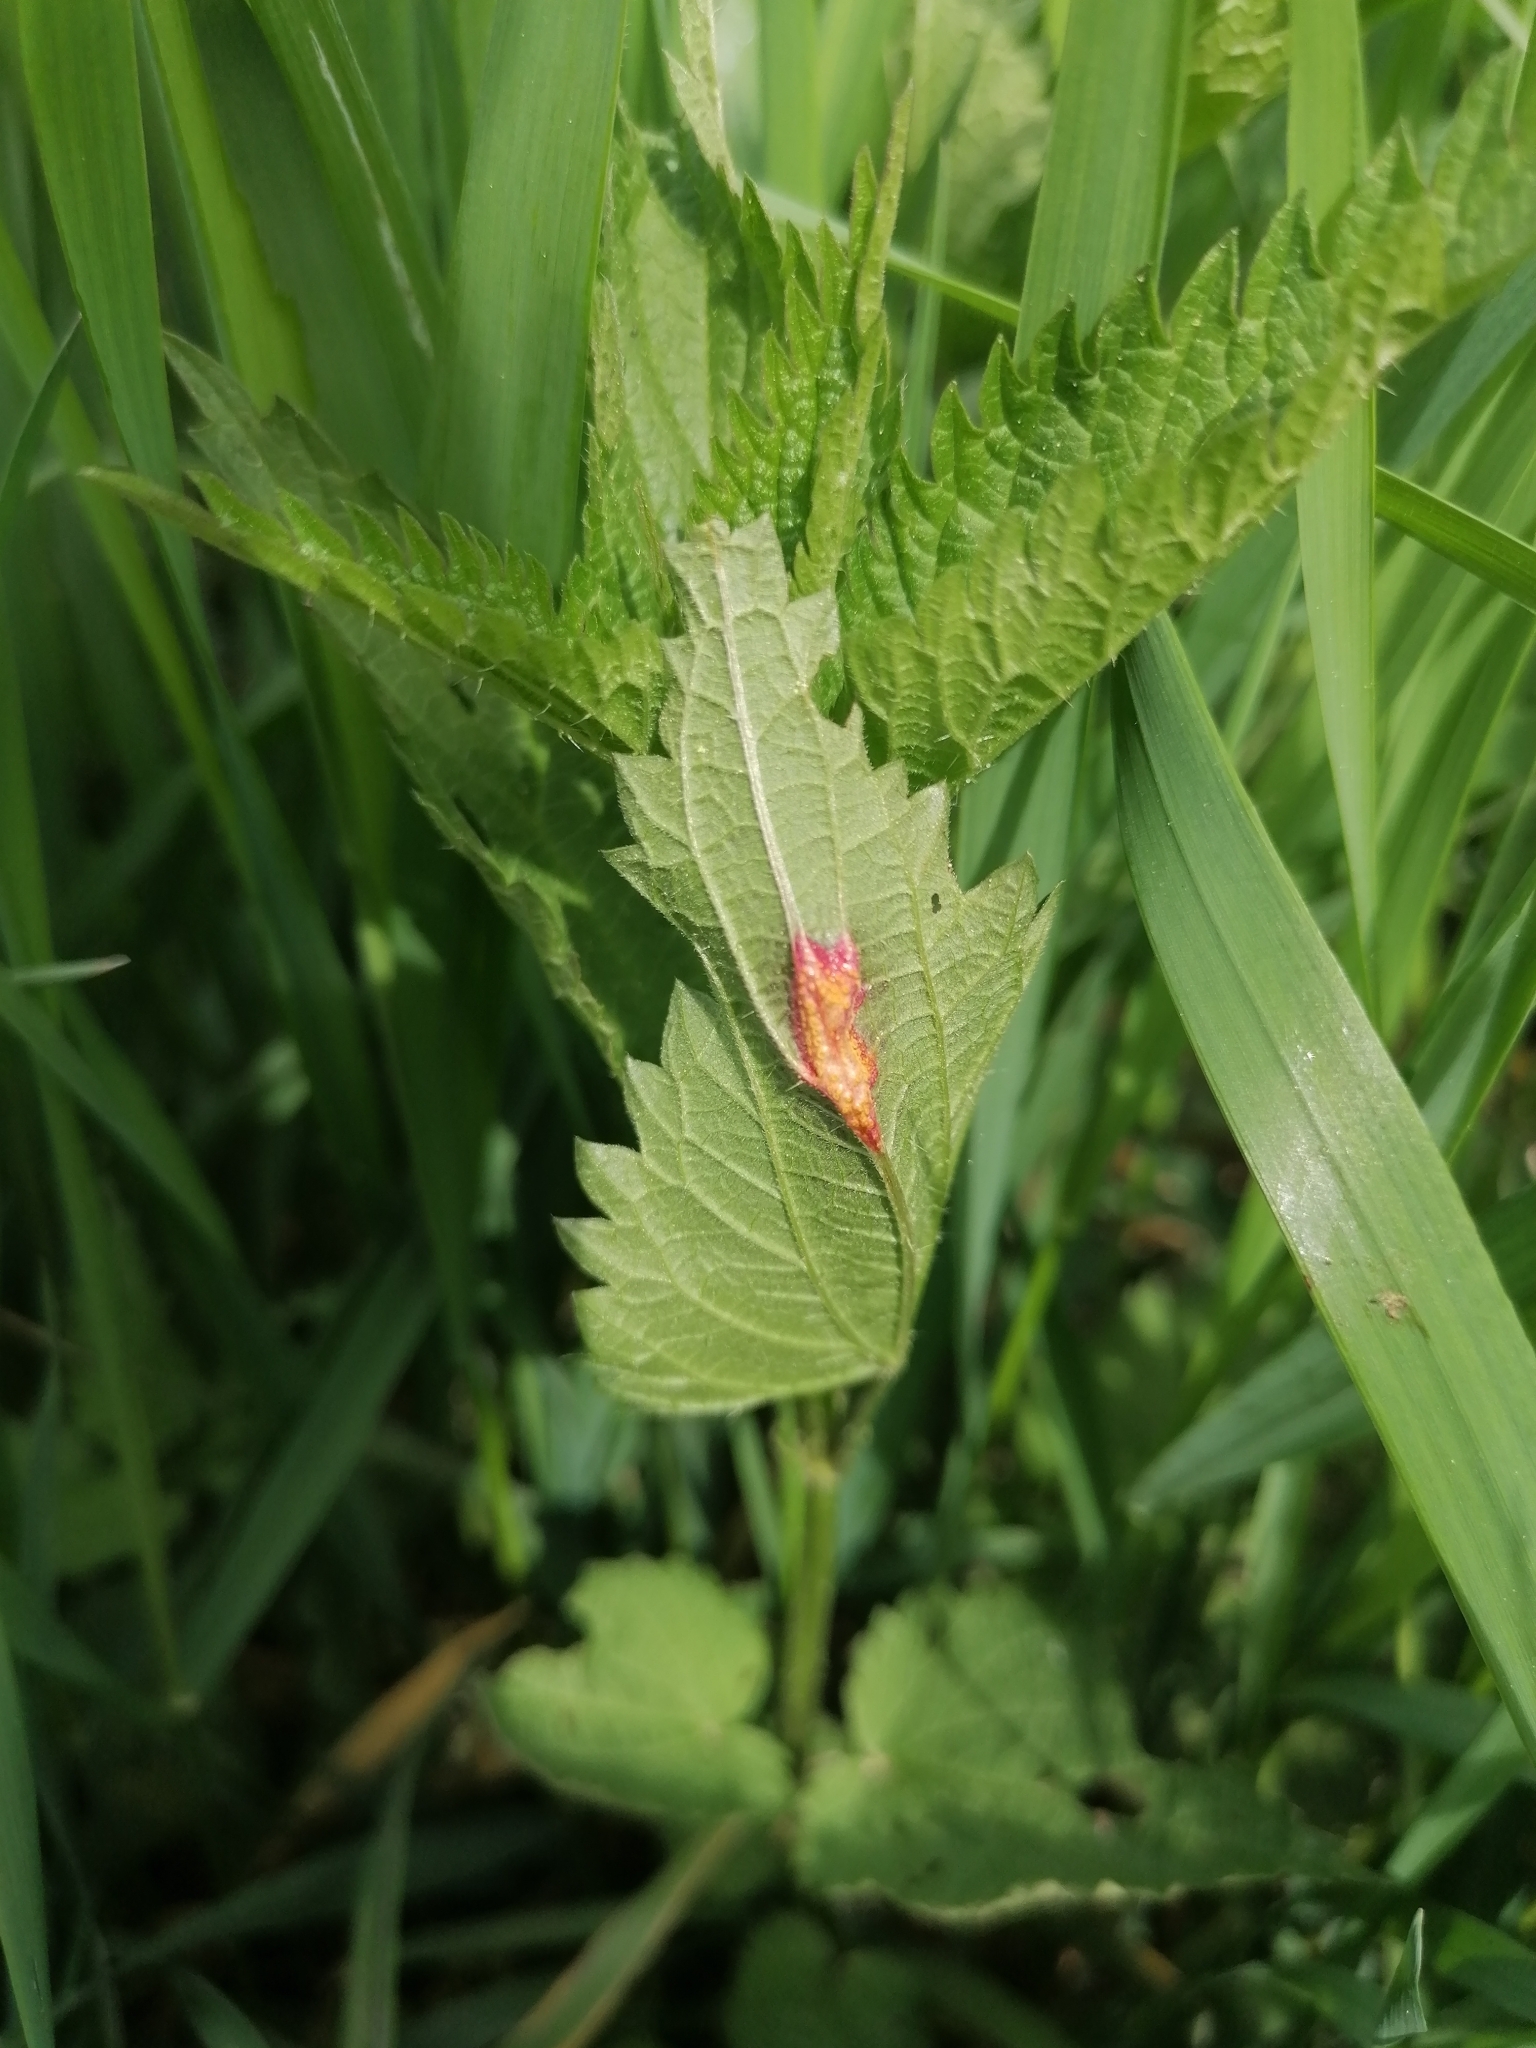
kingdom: Fungi
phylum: Basidiomycota
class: Pucciniomycetes
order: Pucciniales
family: Pucciniaceae
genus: Puccinia
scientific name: Puccinia urticata
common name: Nettle clustercup rust fungus
